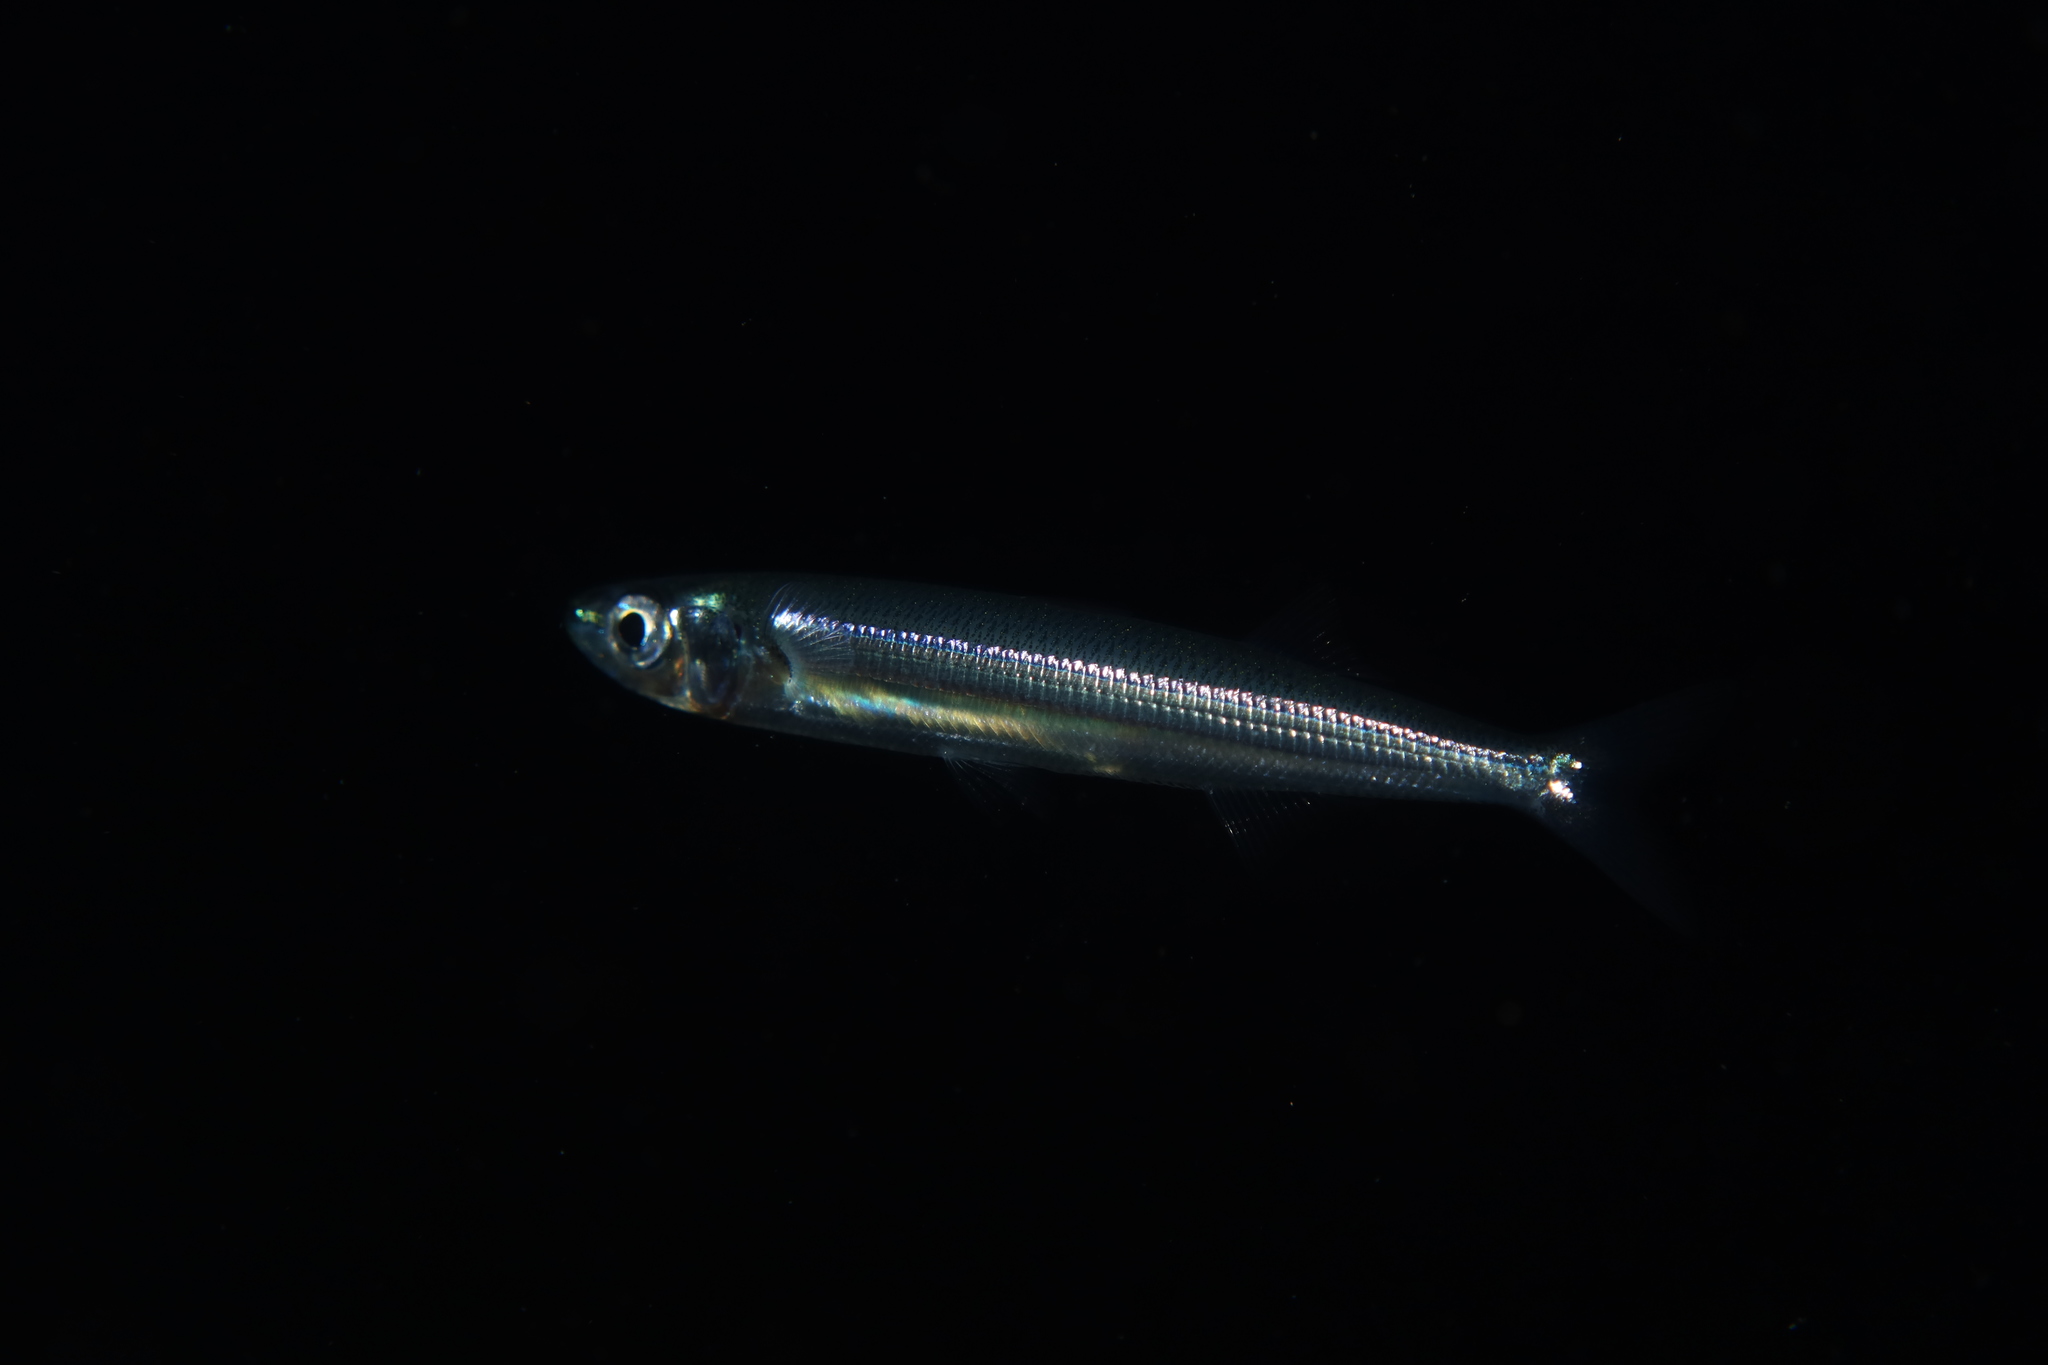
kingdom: Animalia
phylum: Chordata
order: Atheriniformes
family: Atherinidae
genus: Atherina
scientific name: Atherina hepsetus
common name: Mediterranean sand smelt
